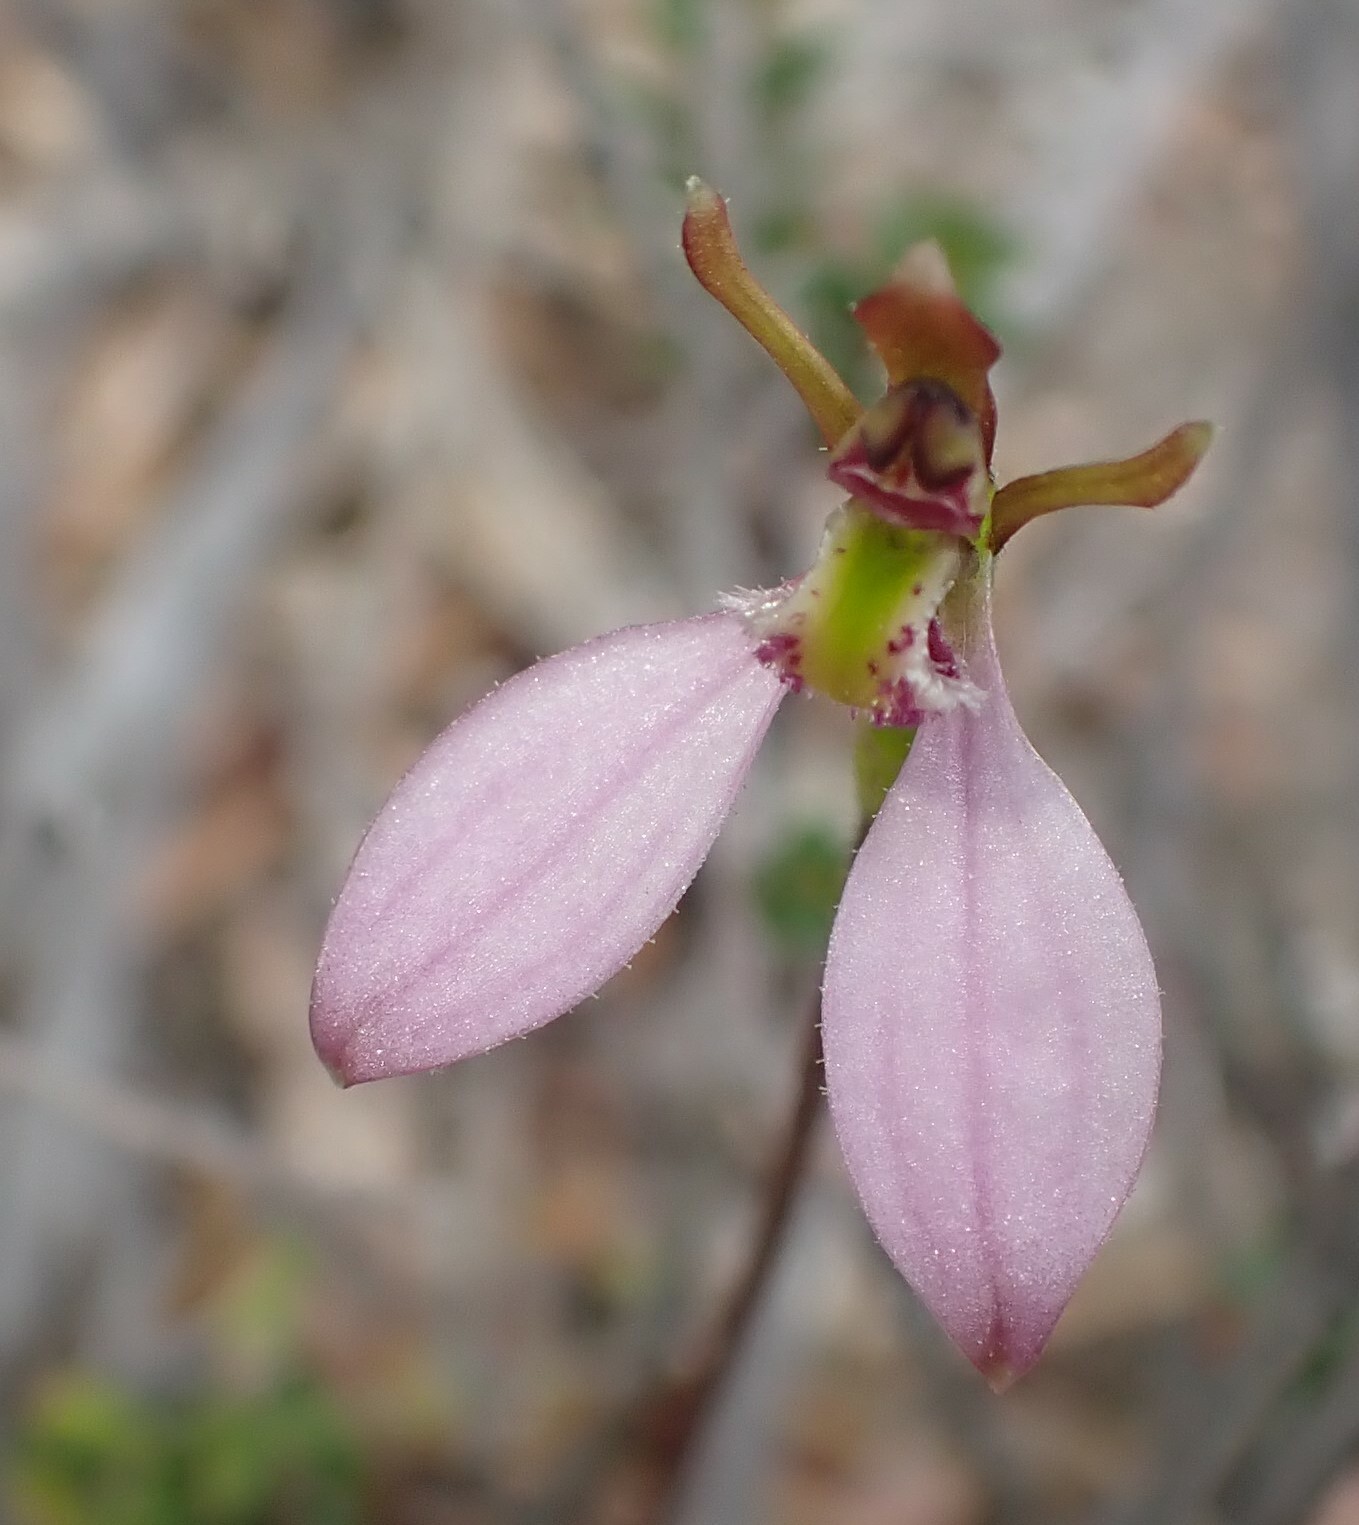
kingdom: Plantae
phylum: Tracheophyta
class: Liliopsida
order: Asparagales
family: Orchidaceae
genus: Eriochilus
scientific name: Eriochilus cucullatus
